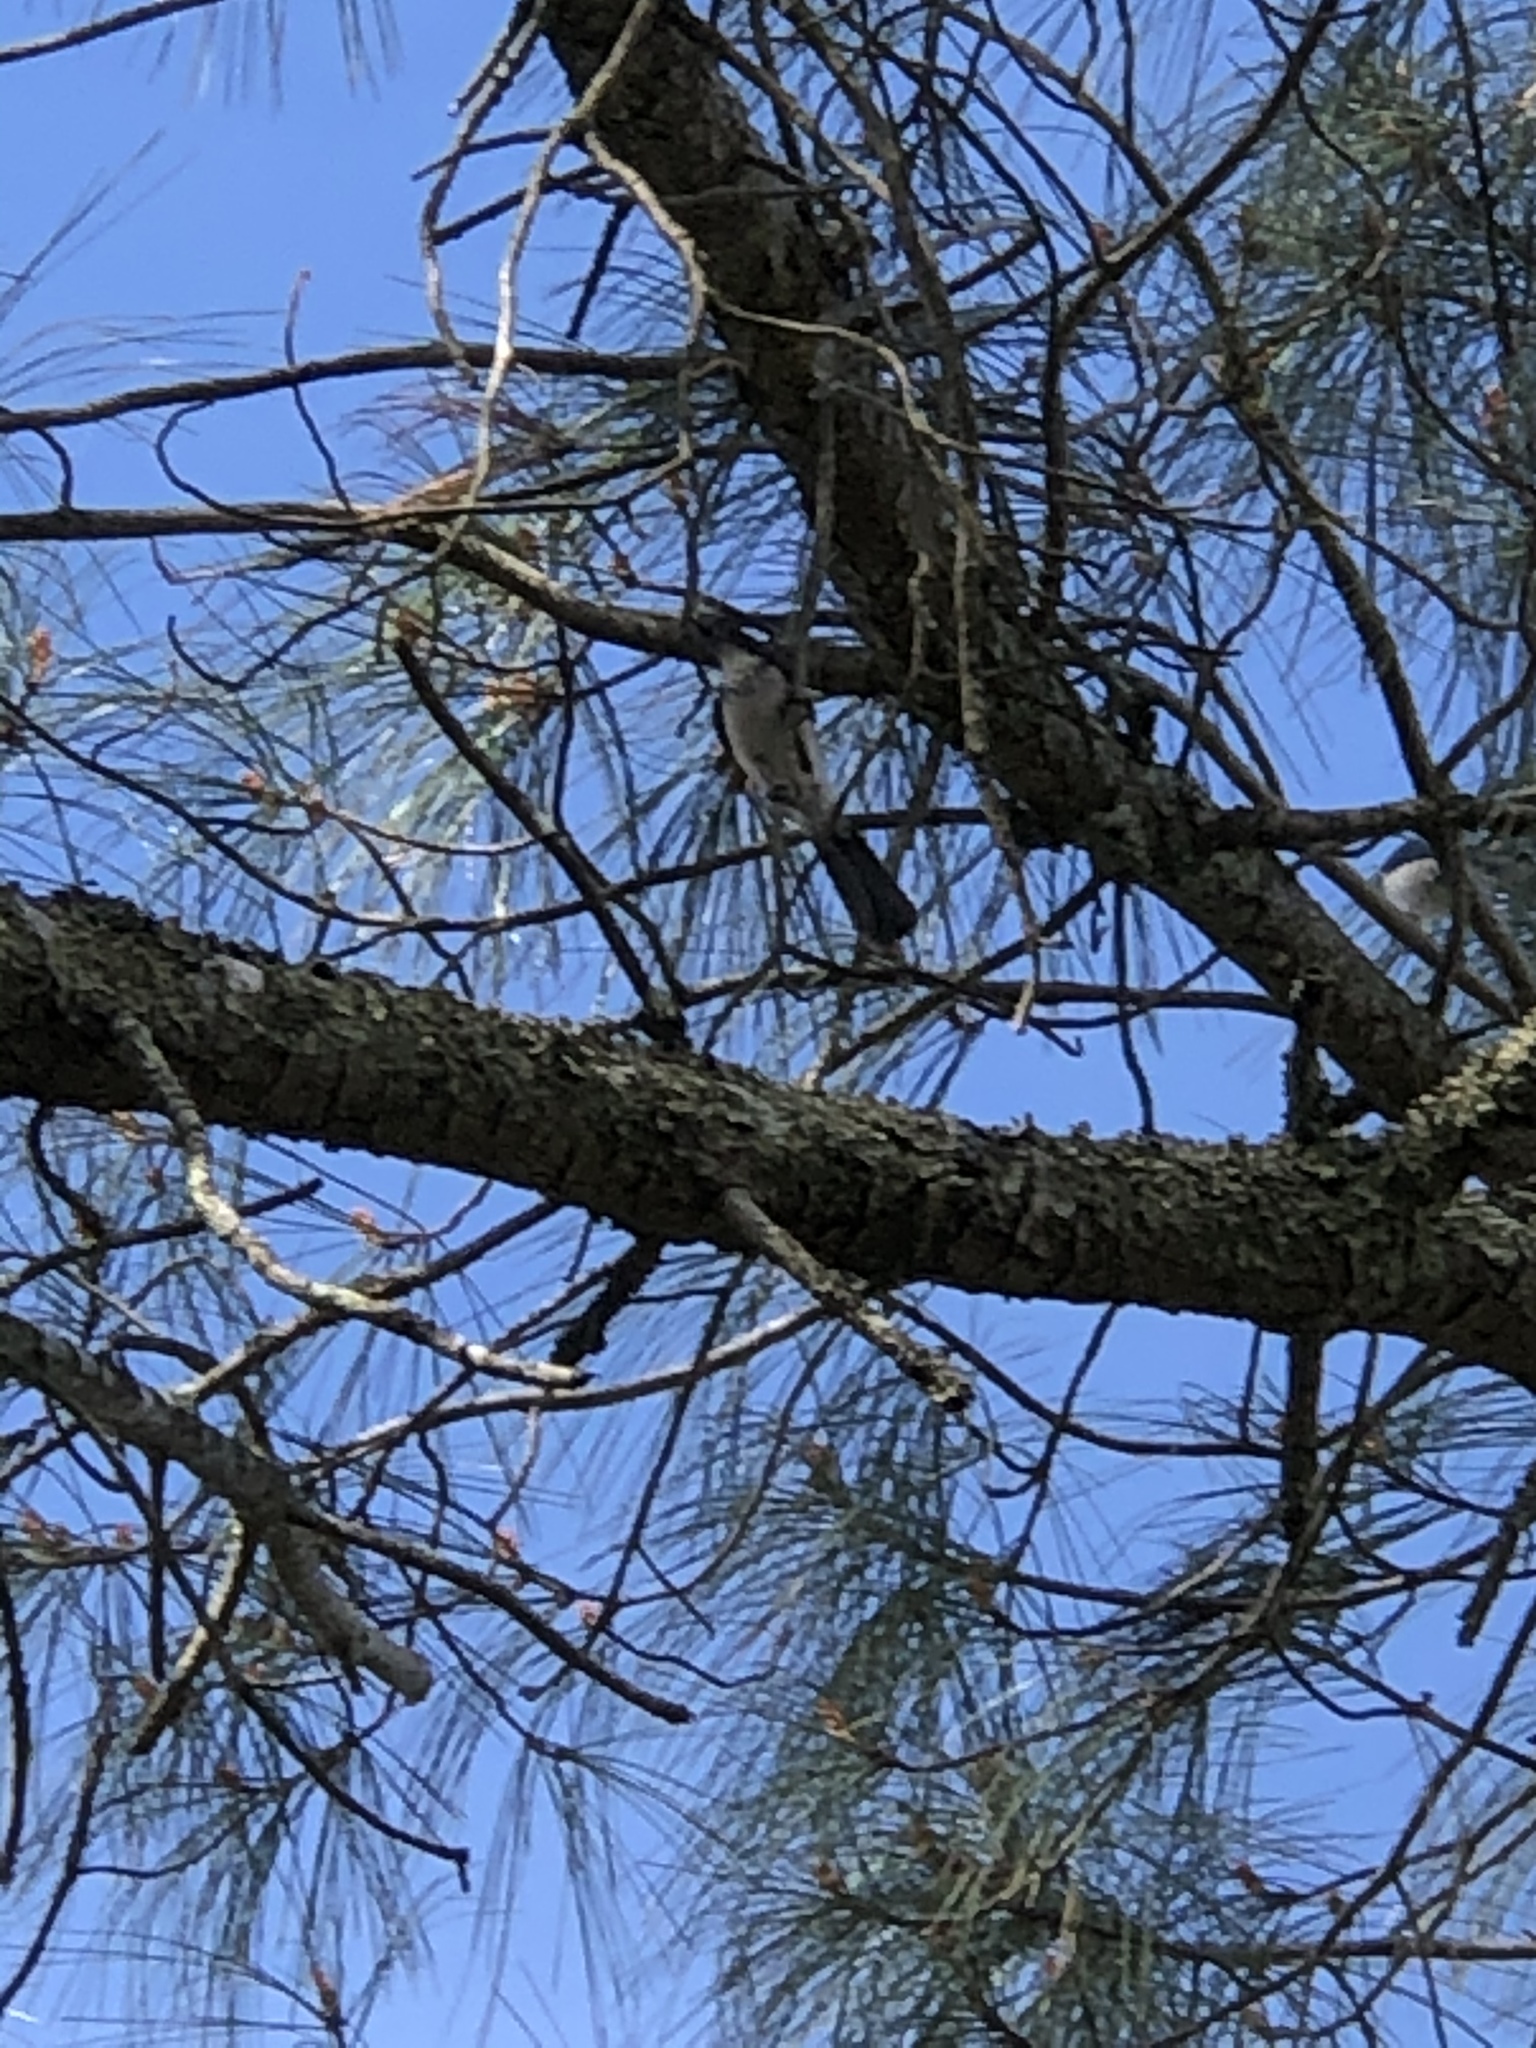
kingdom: Animalia
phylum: Chordata
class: Aves
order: Passeriformes
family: Corvidae
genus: Aphelocoma
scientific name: Aphelocoma californica
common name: California scrub-jay
